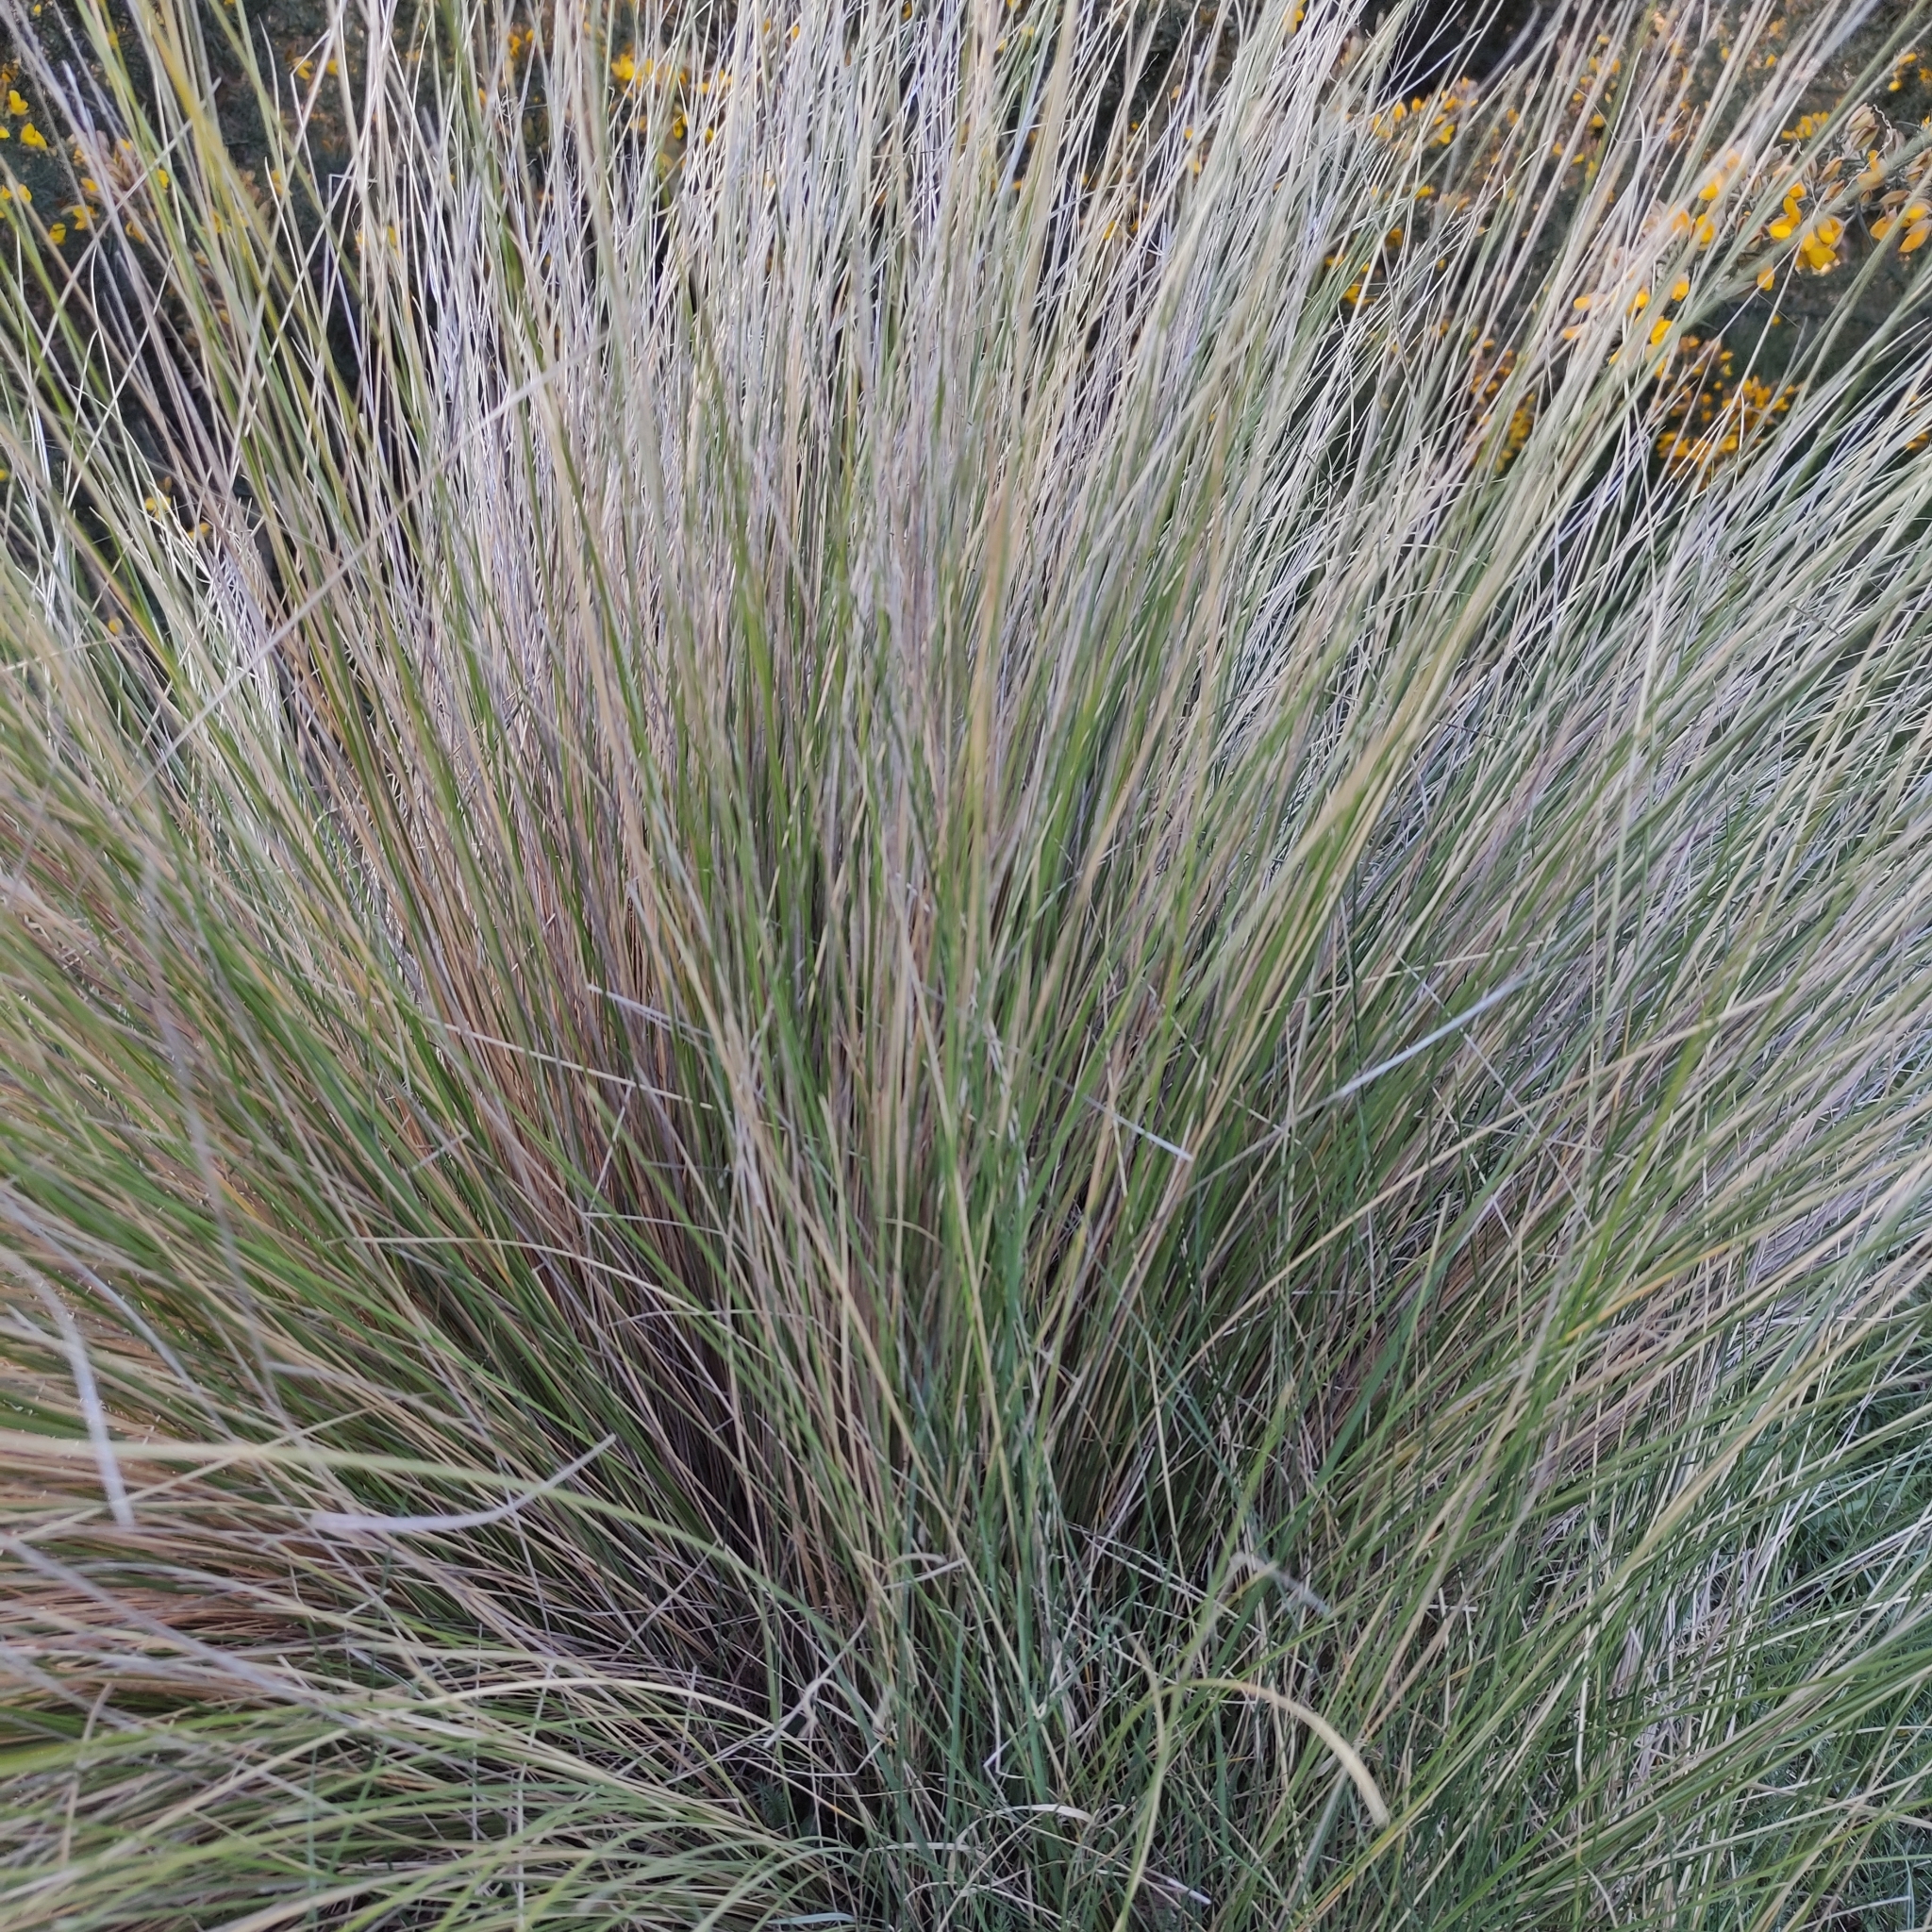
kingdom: Plantae
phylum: Tracheophyta
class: Liliopsida
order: Poales
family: Poaceae
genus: Poa
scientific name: Poa cita
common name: Silver tussock
